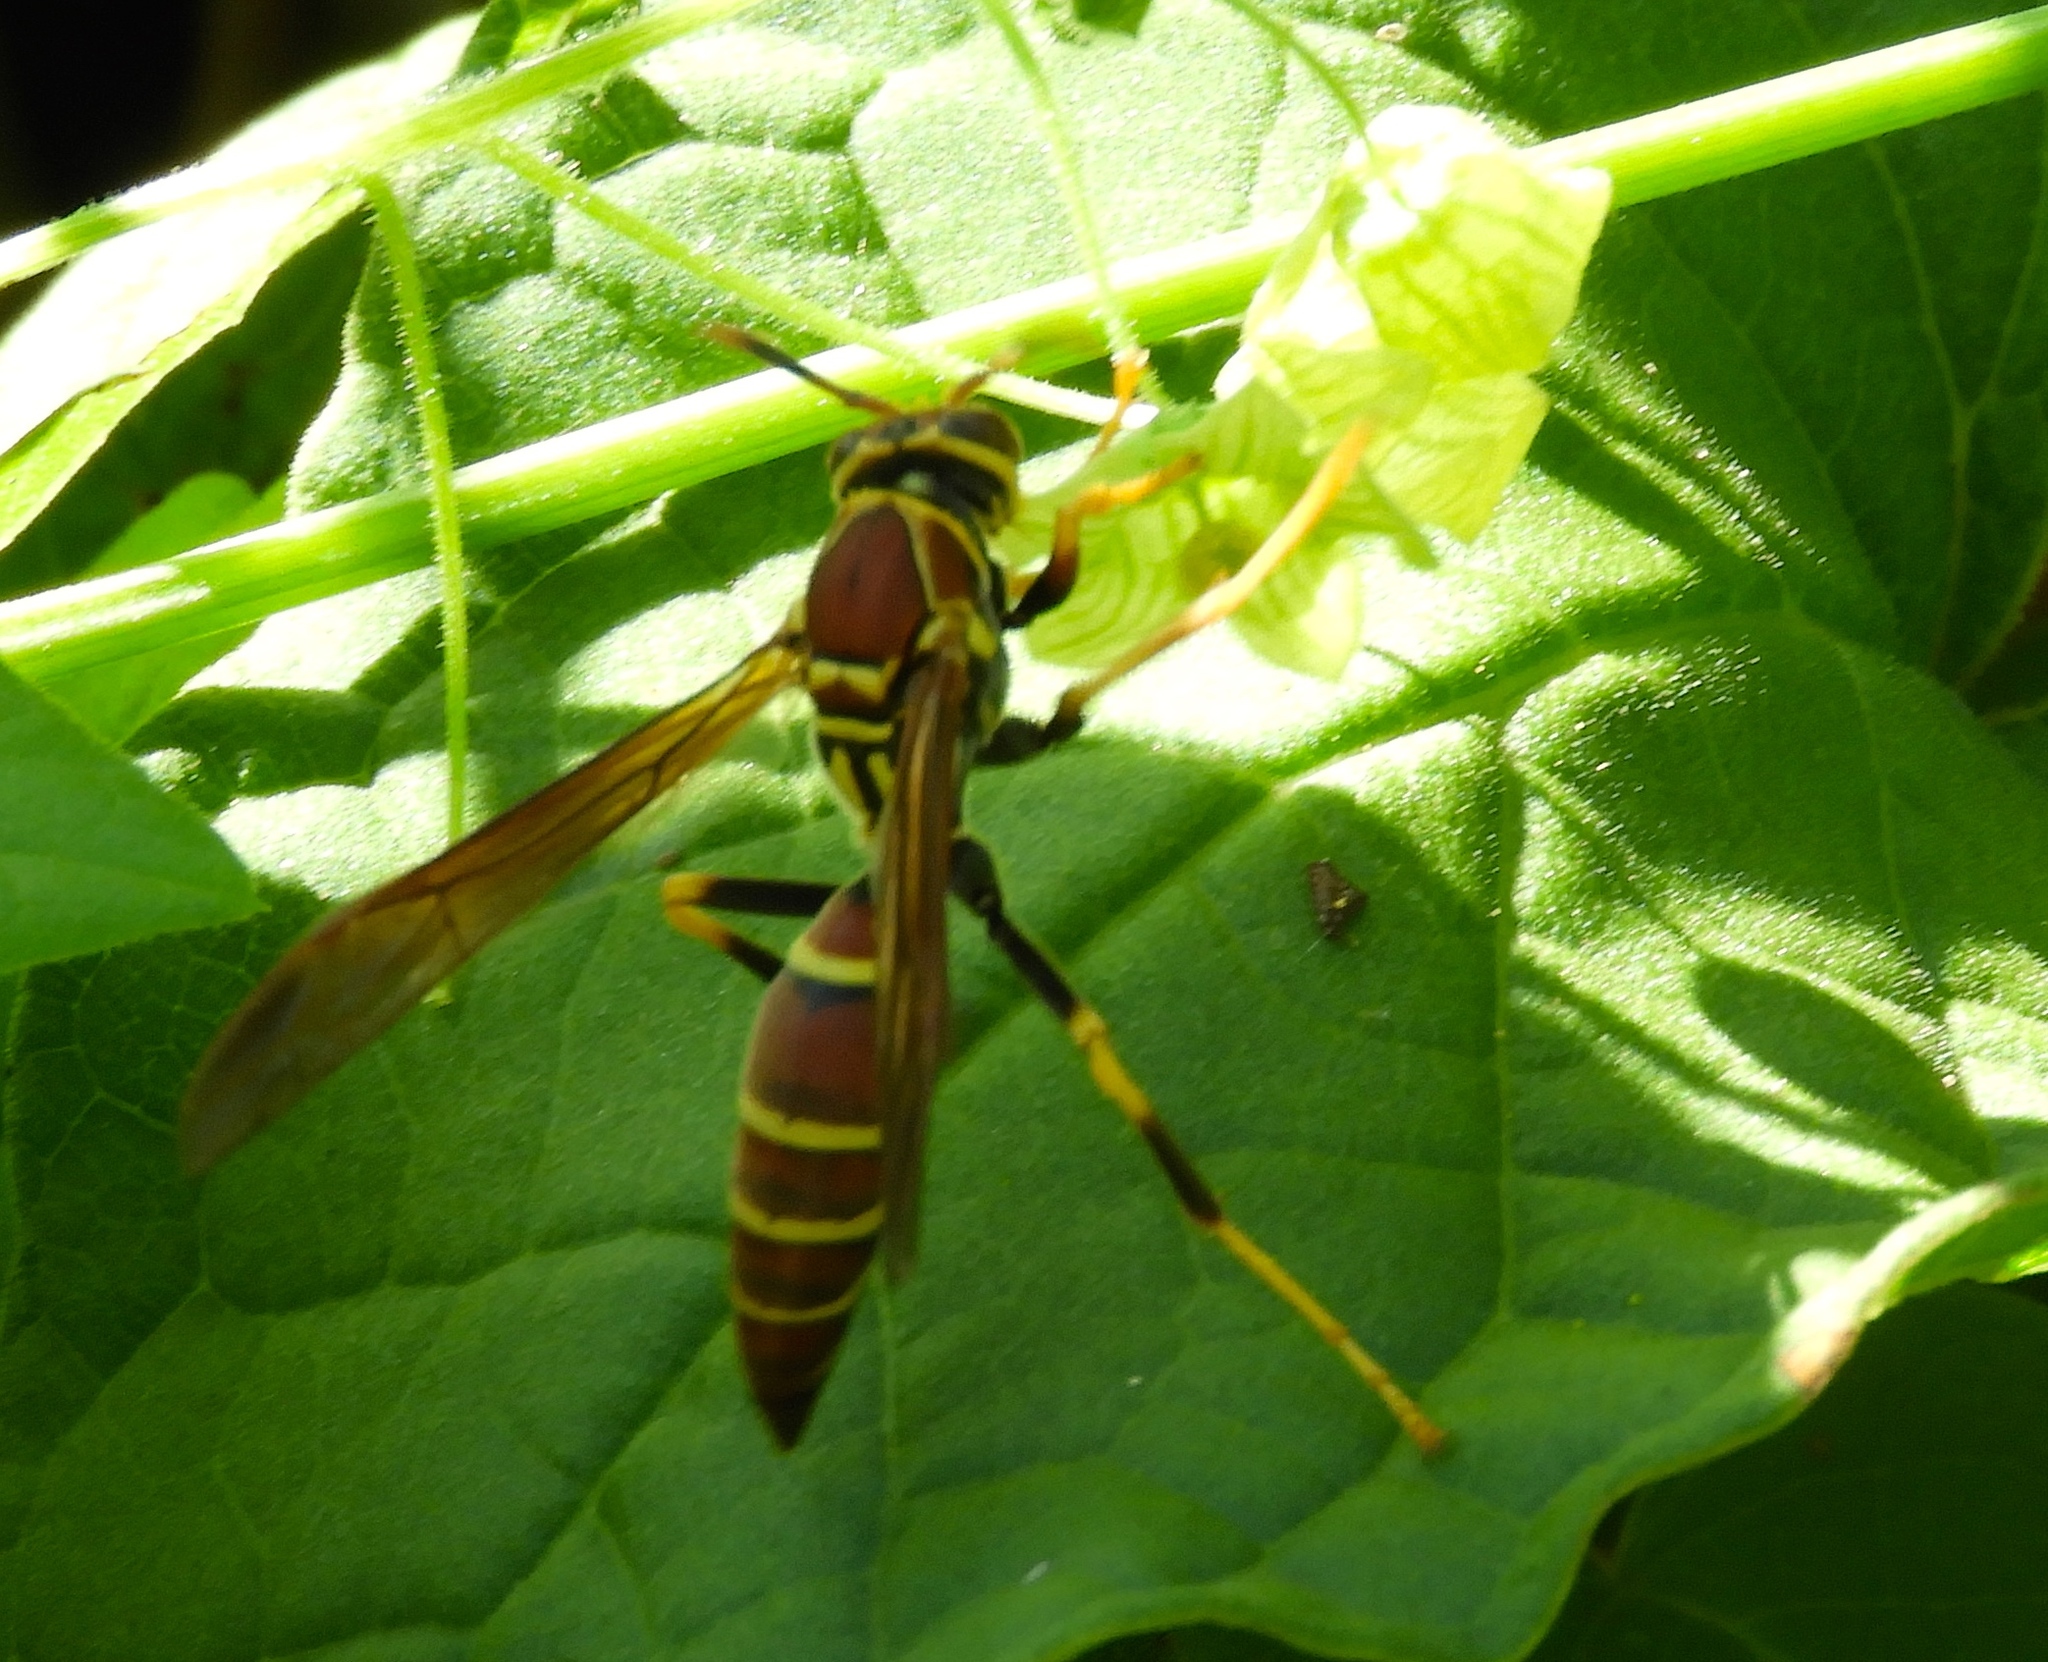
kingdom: Animalia
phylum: Arthropoda
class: Insecta
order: Hymenoptera
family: Eumenidae
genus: Polistes
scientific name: Polistes instabilis
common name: Unstable paper wasp
